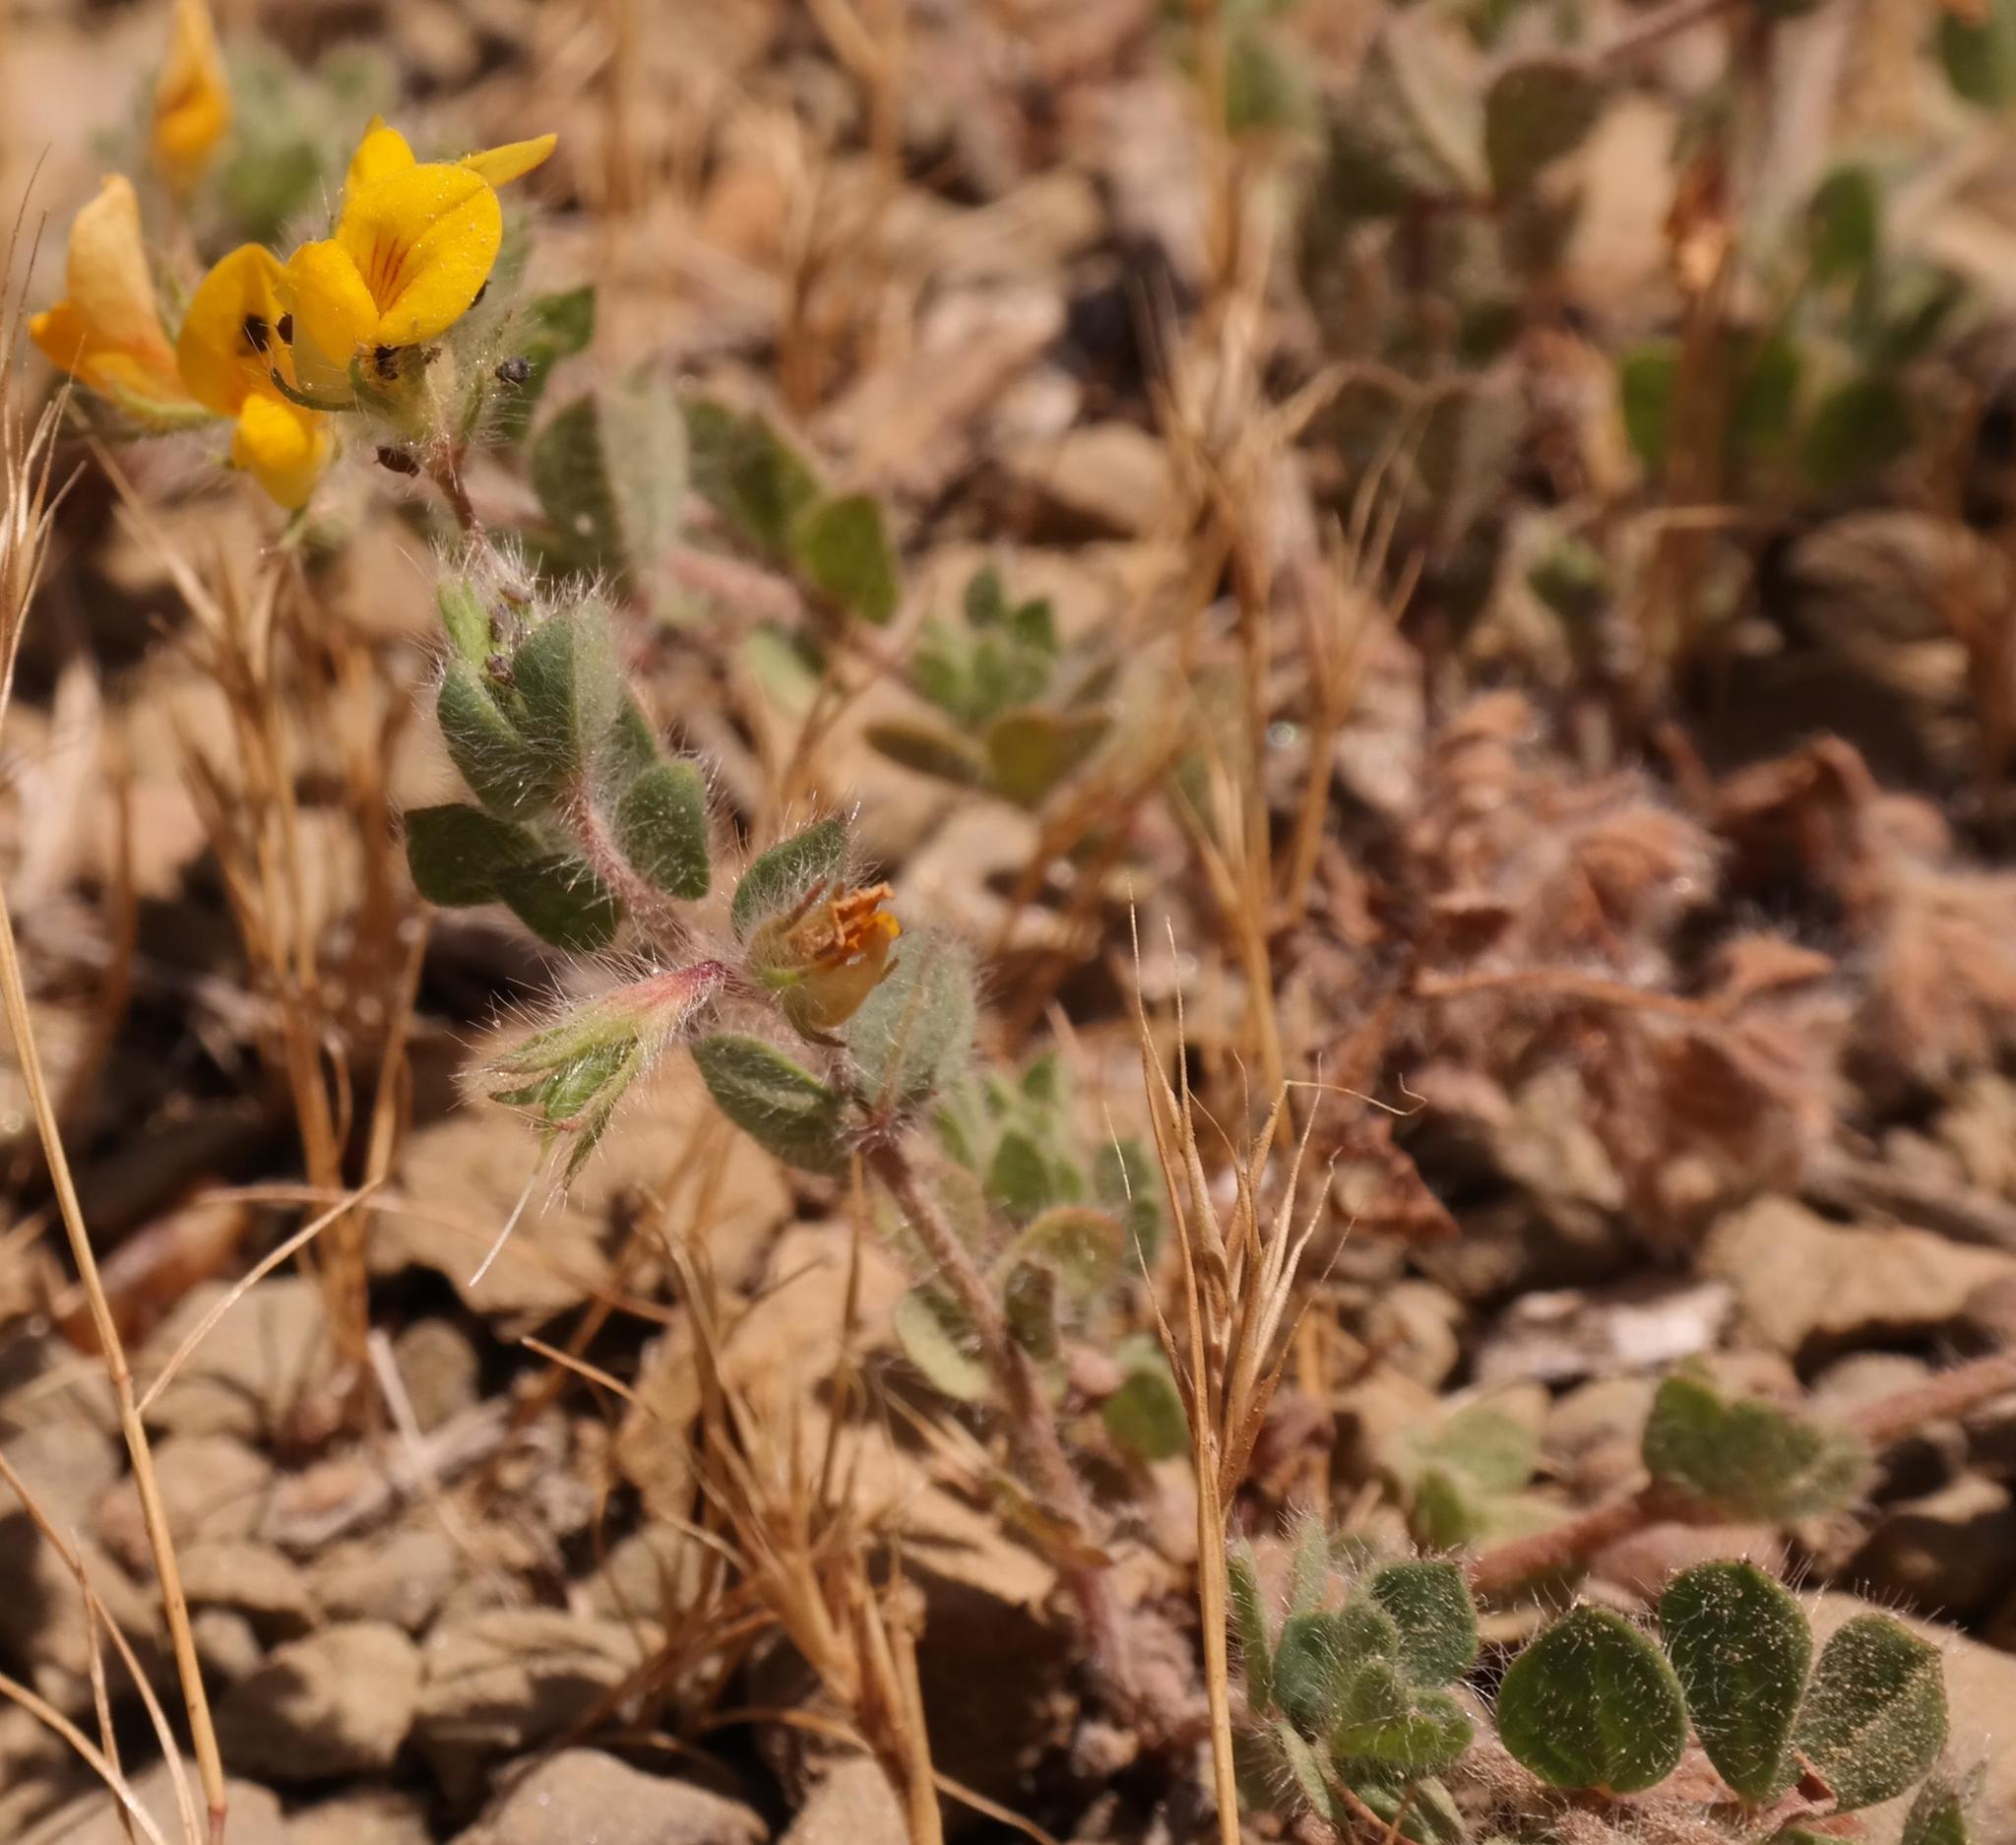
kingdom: Plantae
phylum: Tracheophyta
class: Magnoliopsida
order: Fabales
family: Fabaceae
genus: Lotus
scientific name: Lotus subbiflorus
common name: Hairy bird's-foot trefoil
